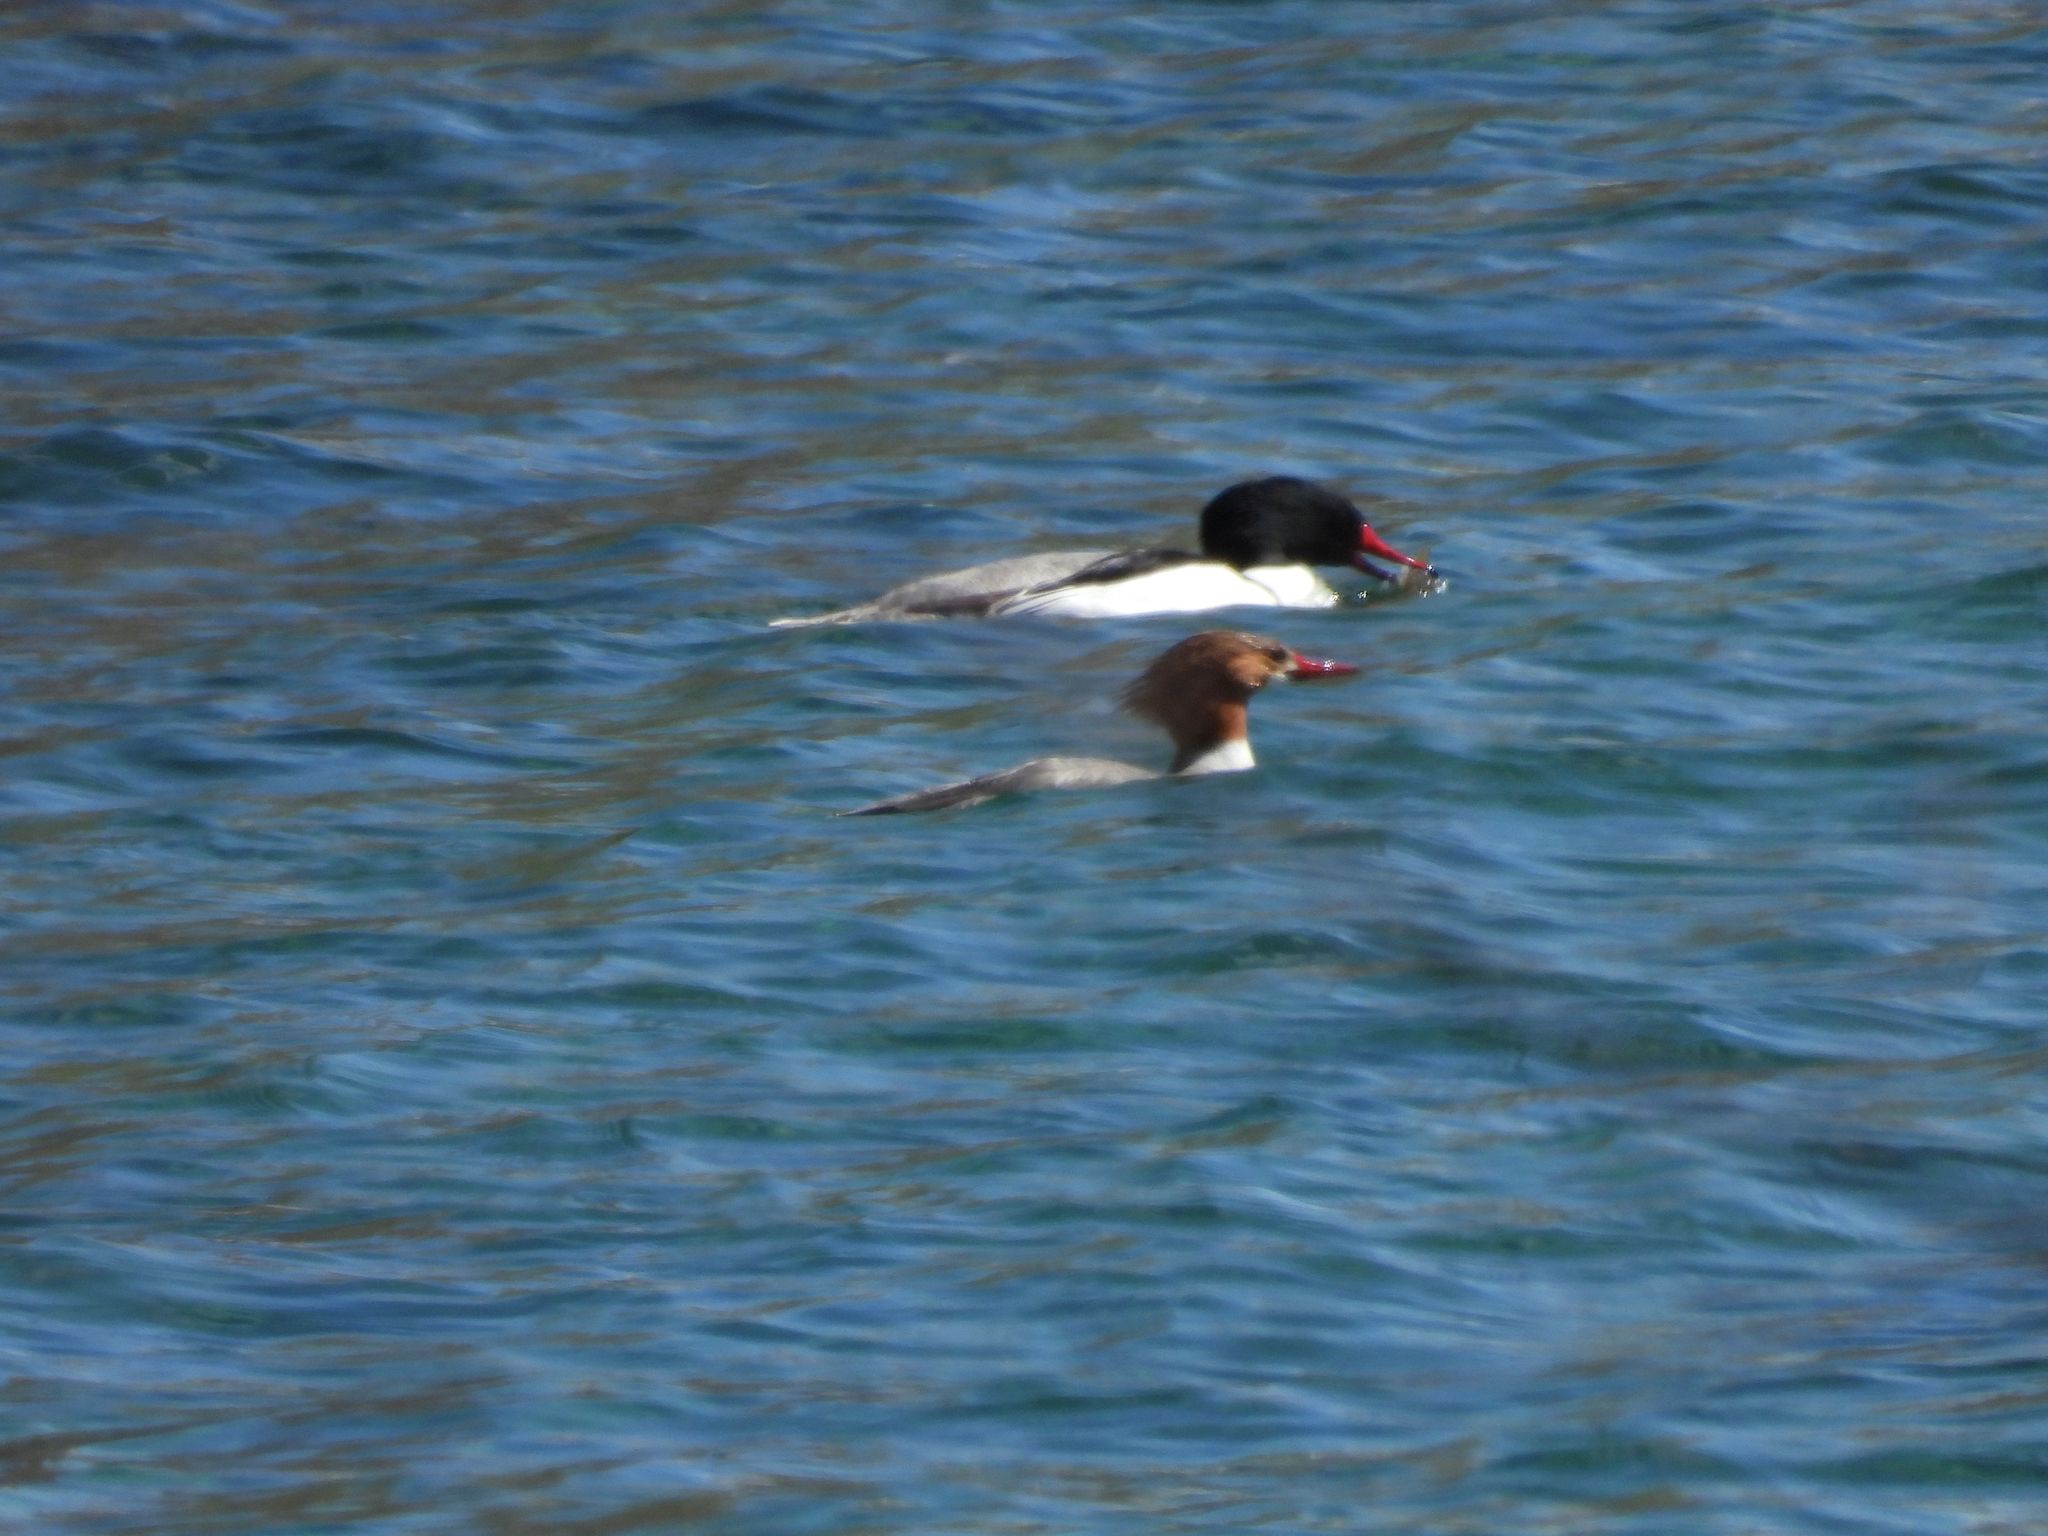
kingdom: Animalia
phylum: Chordata
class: Aves
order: Anseriformes
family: Anatidae
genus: Mergus
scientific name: Mergus merganser
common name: Common merganser
